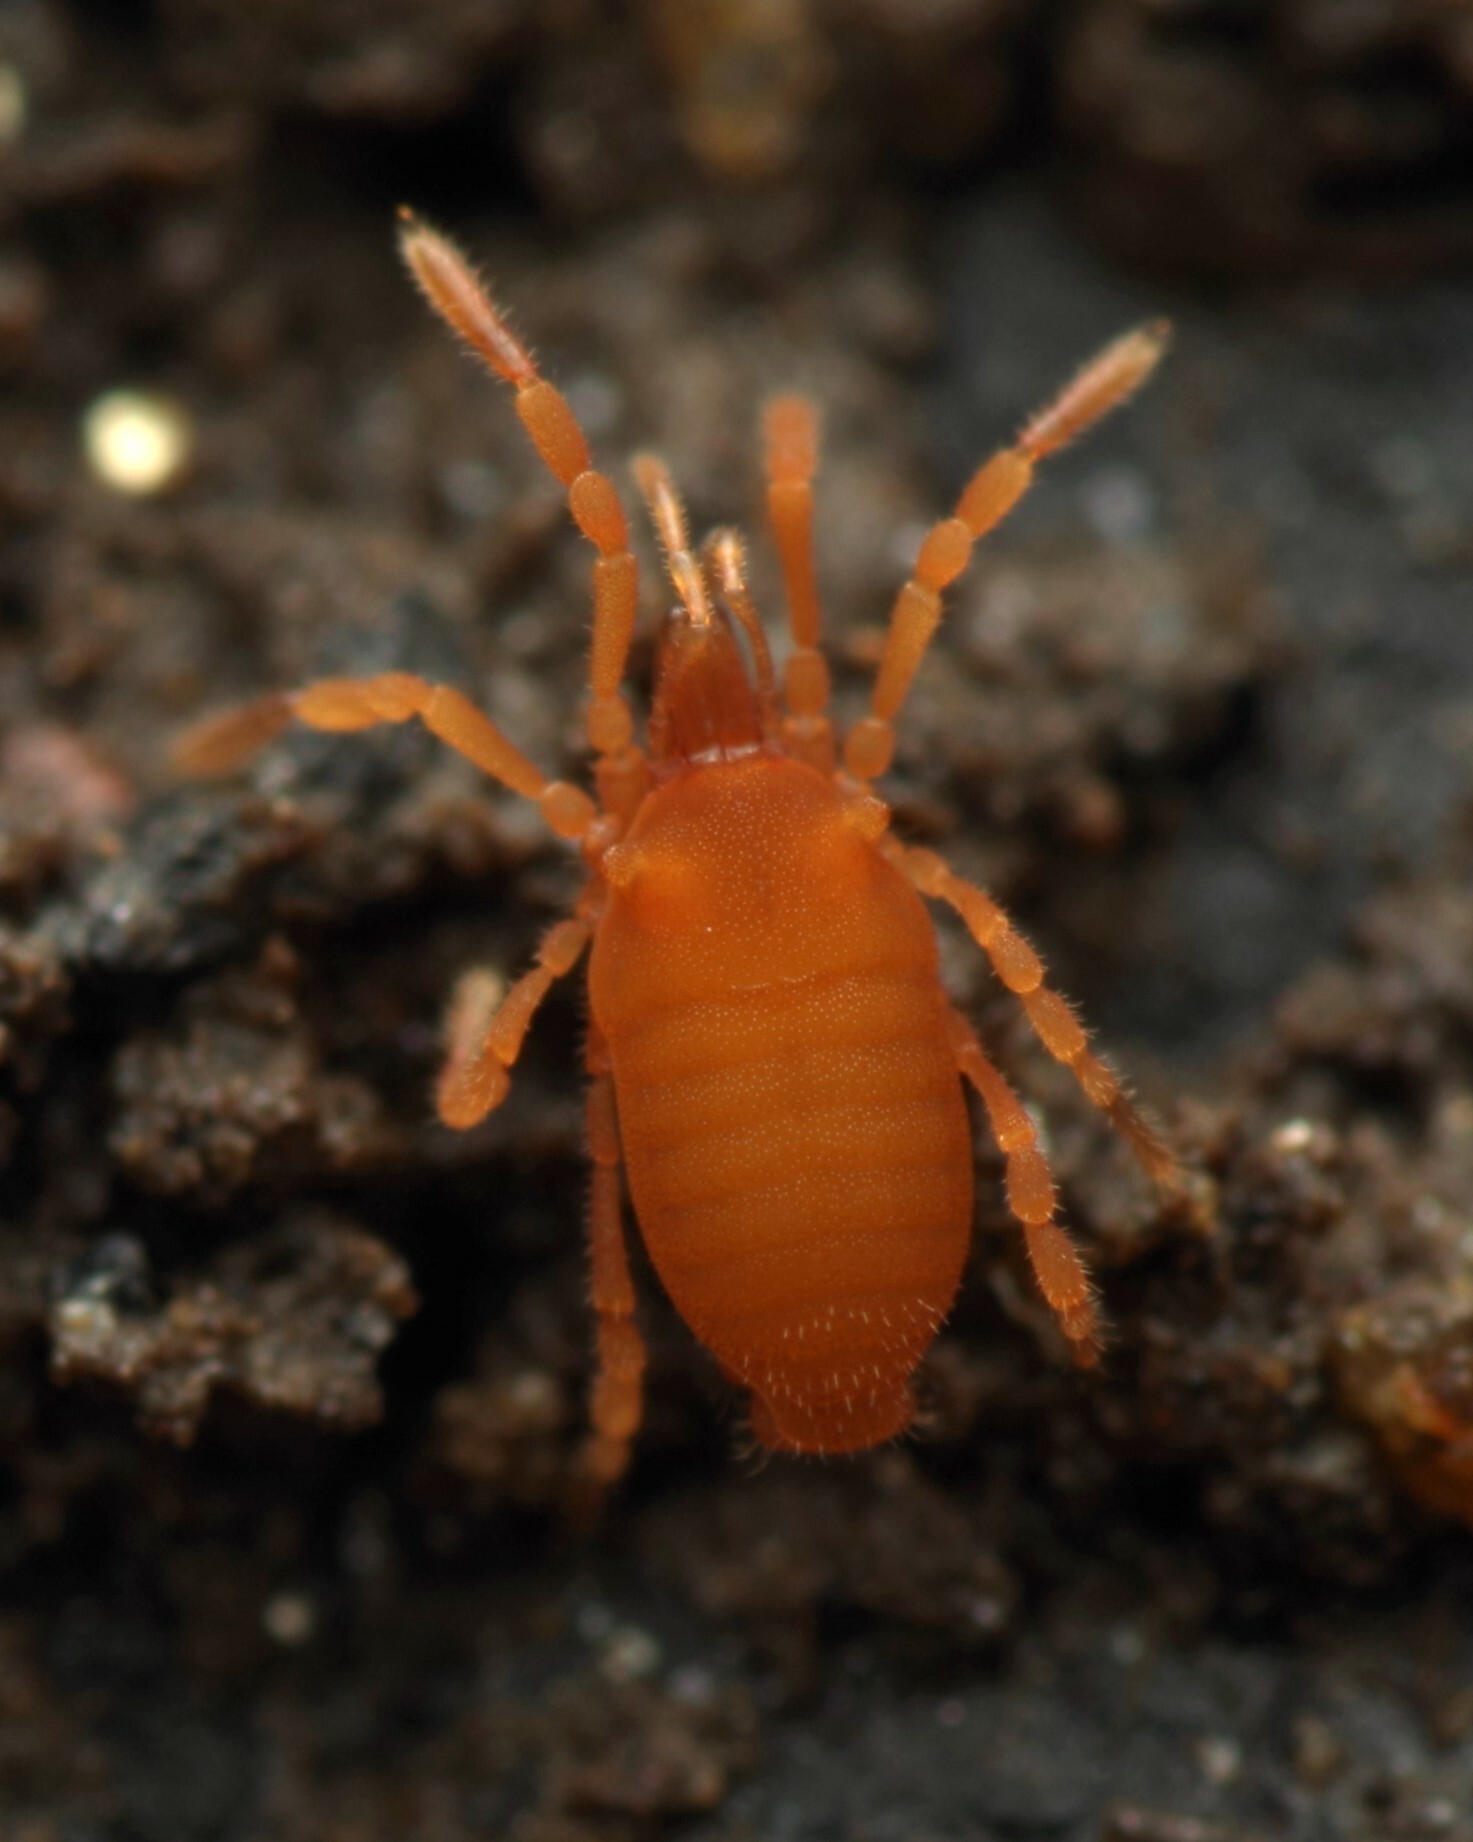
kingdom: Animalia
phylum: Arthropoda
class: Arachnida
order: Opiliones
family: Sironidae
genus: Siro
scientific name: Siro rubens
